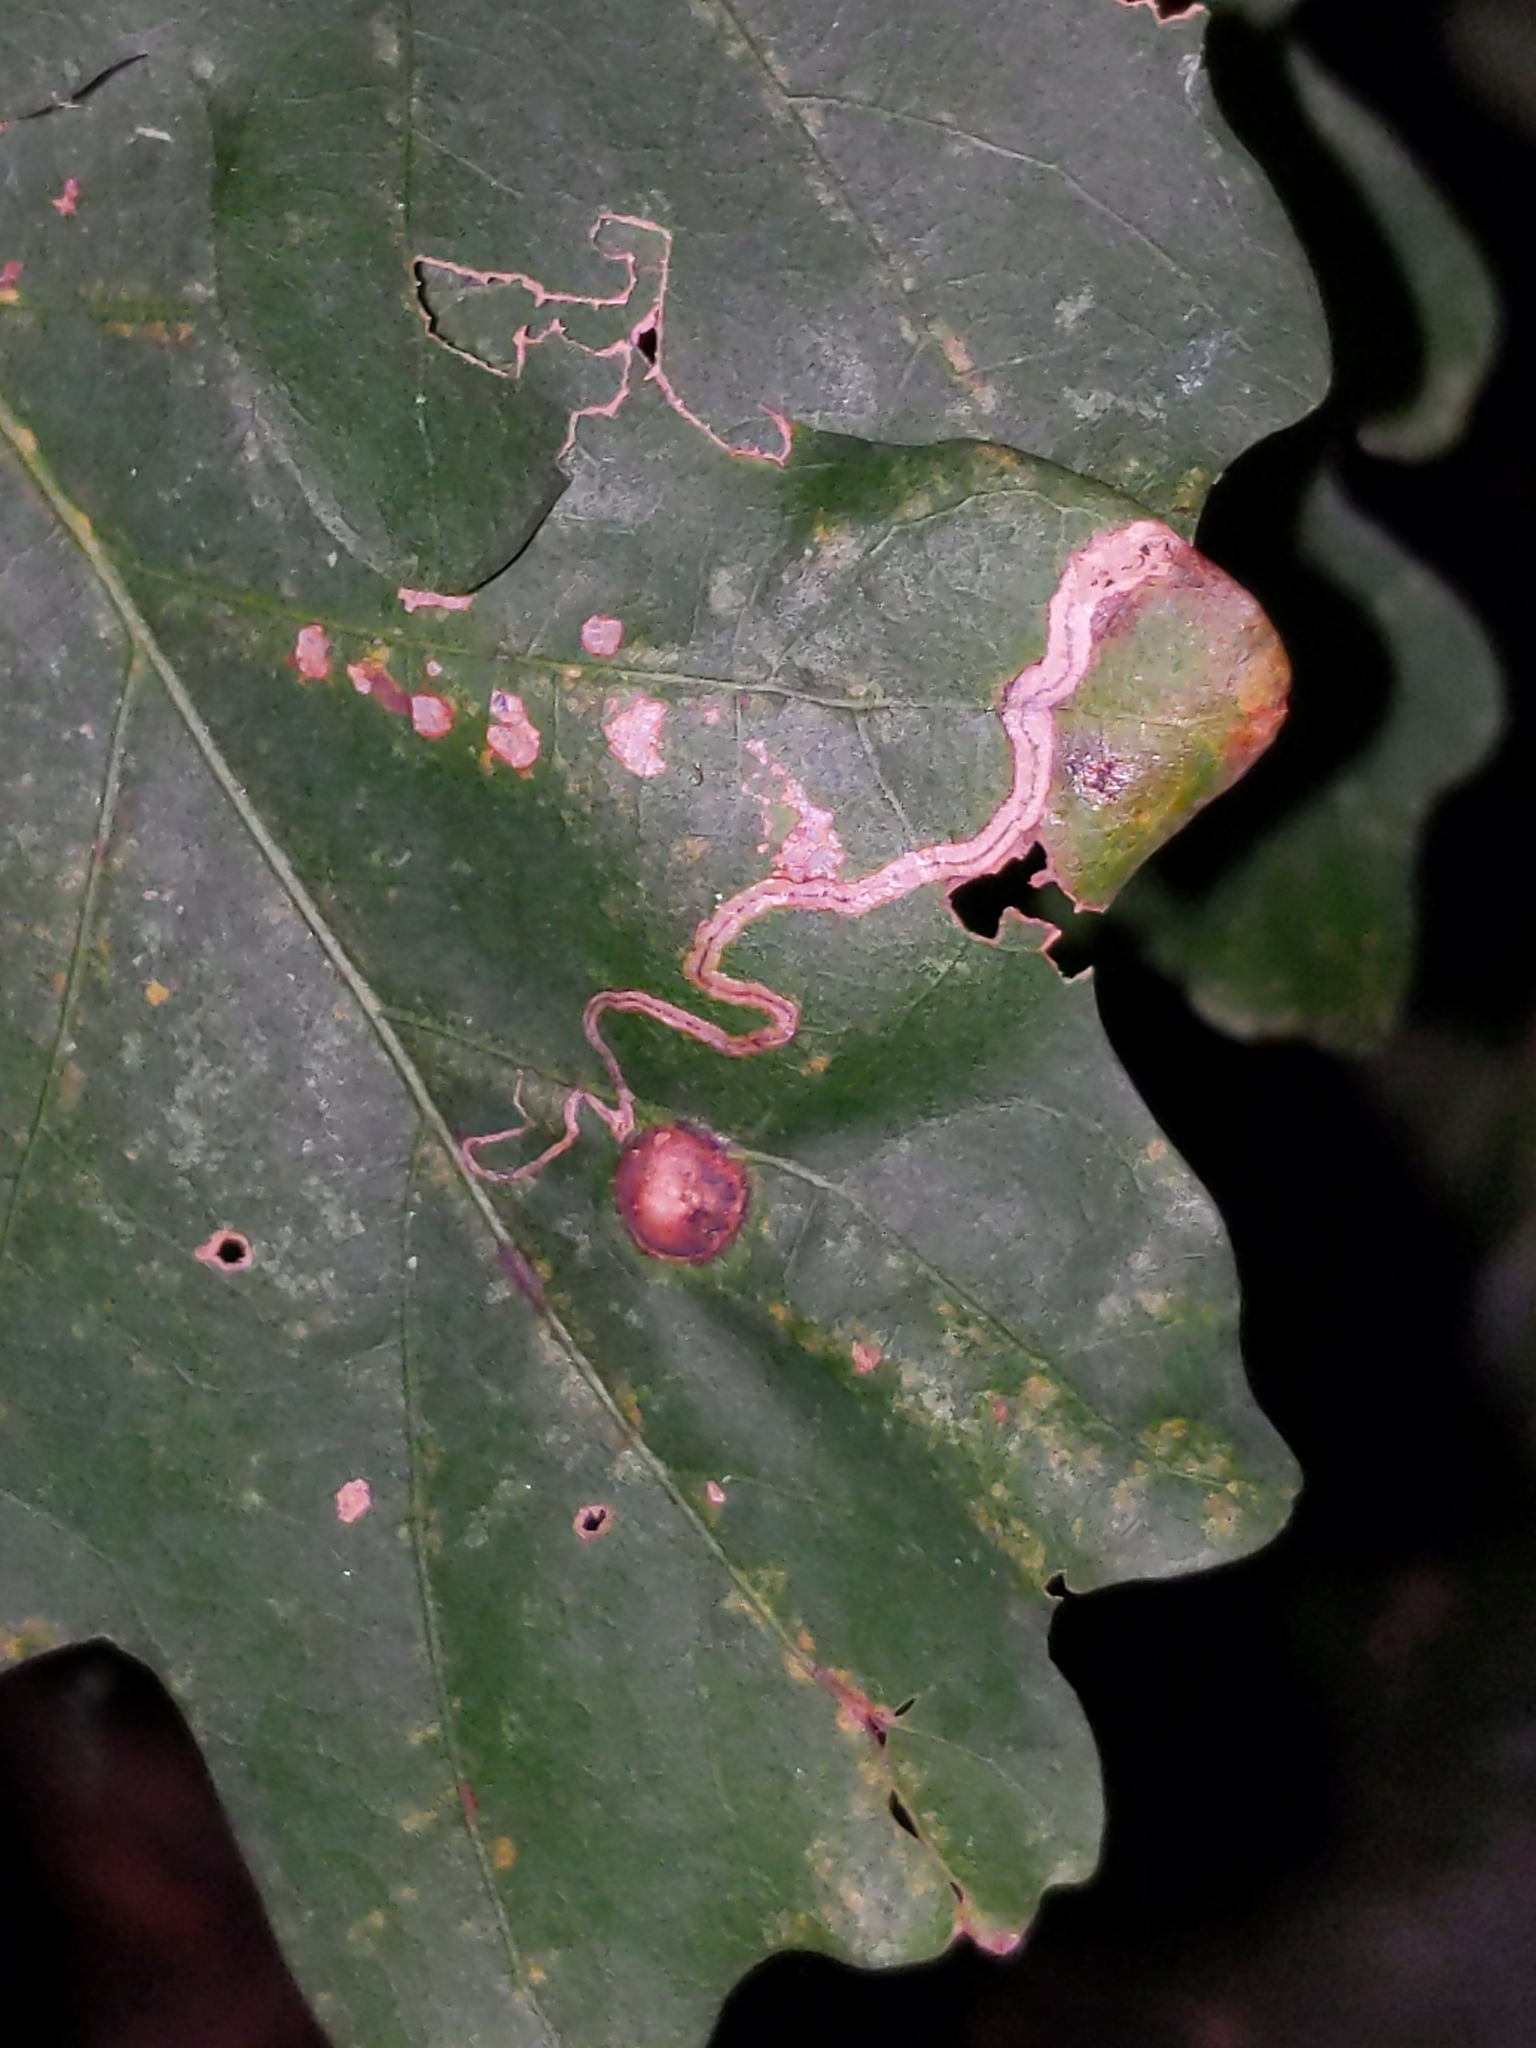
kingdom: Animalia
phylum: Arthropoda
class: Insecta
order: Lepidoptera
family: Nepticulidae
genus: Stigmella
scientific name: Stigmella
